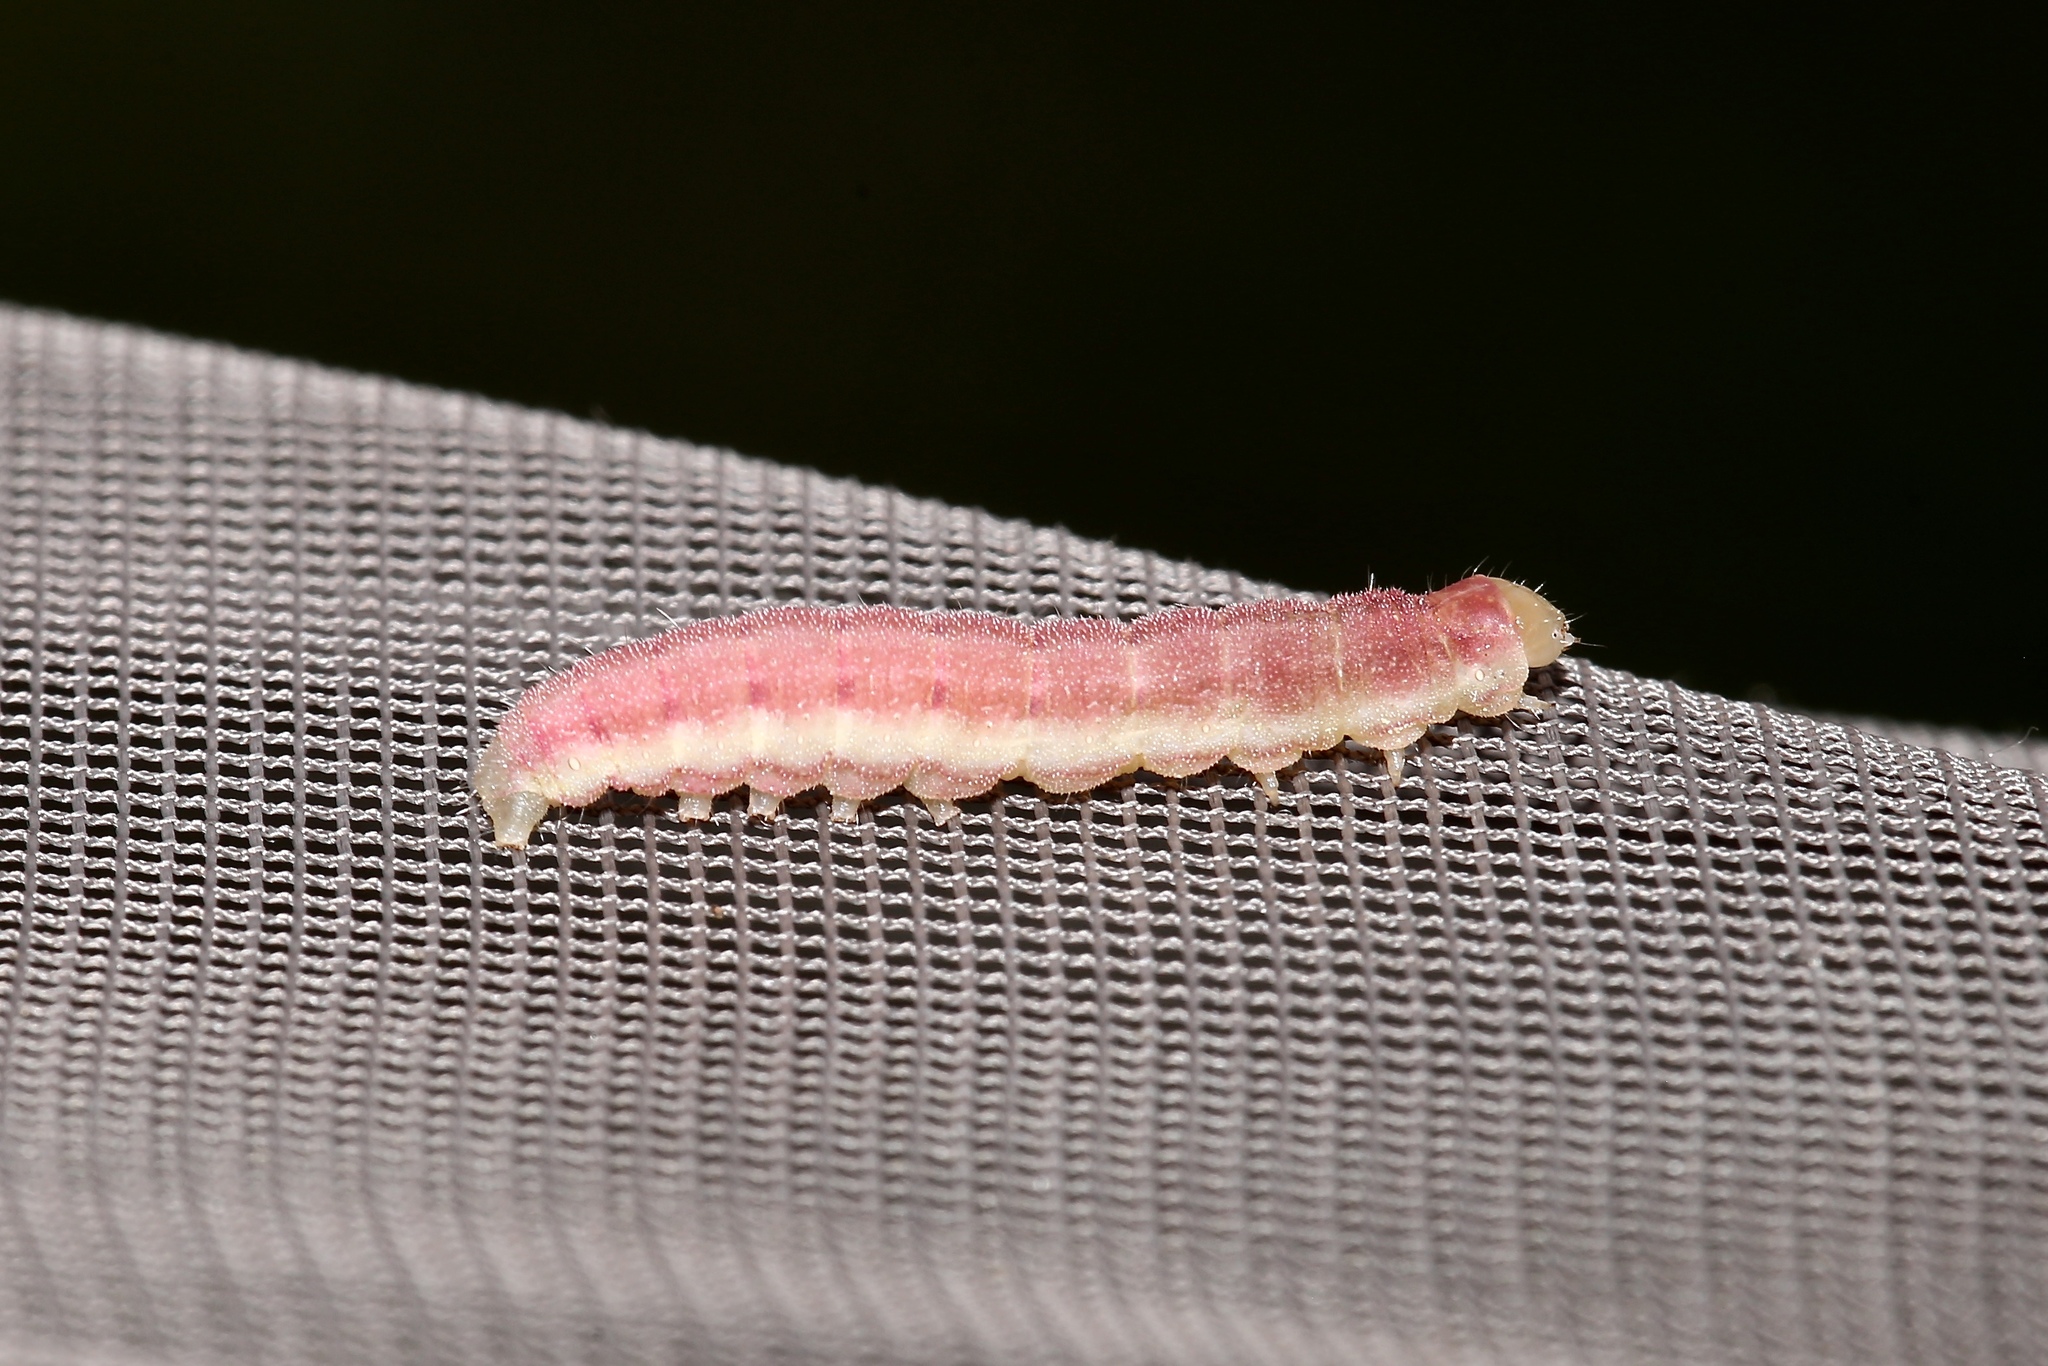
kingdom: Animalia
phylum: Arthropoda
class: Insecta
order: Lepidoptera
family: Noctuidae
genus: Schinia
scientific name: Schinia florida
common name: Primrose moth
